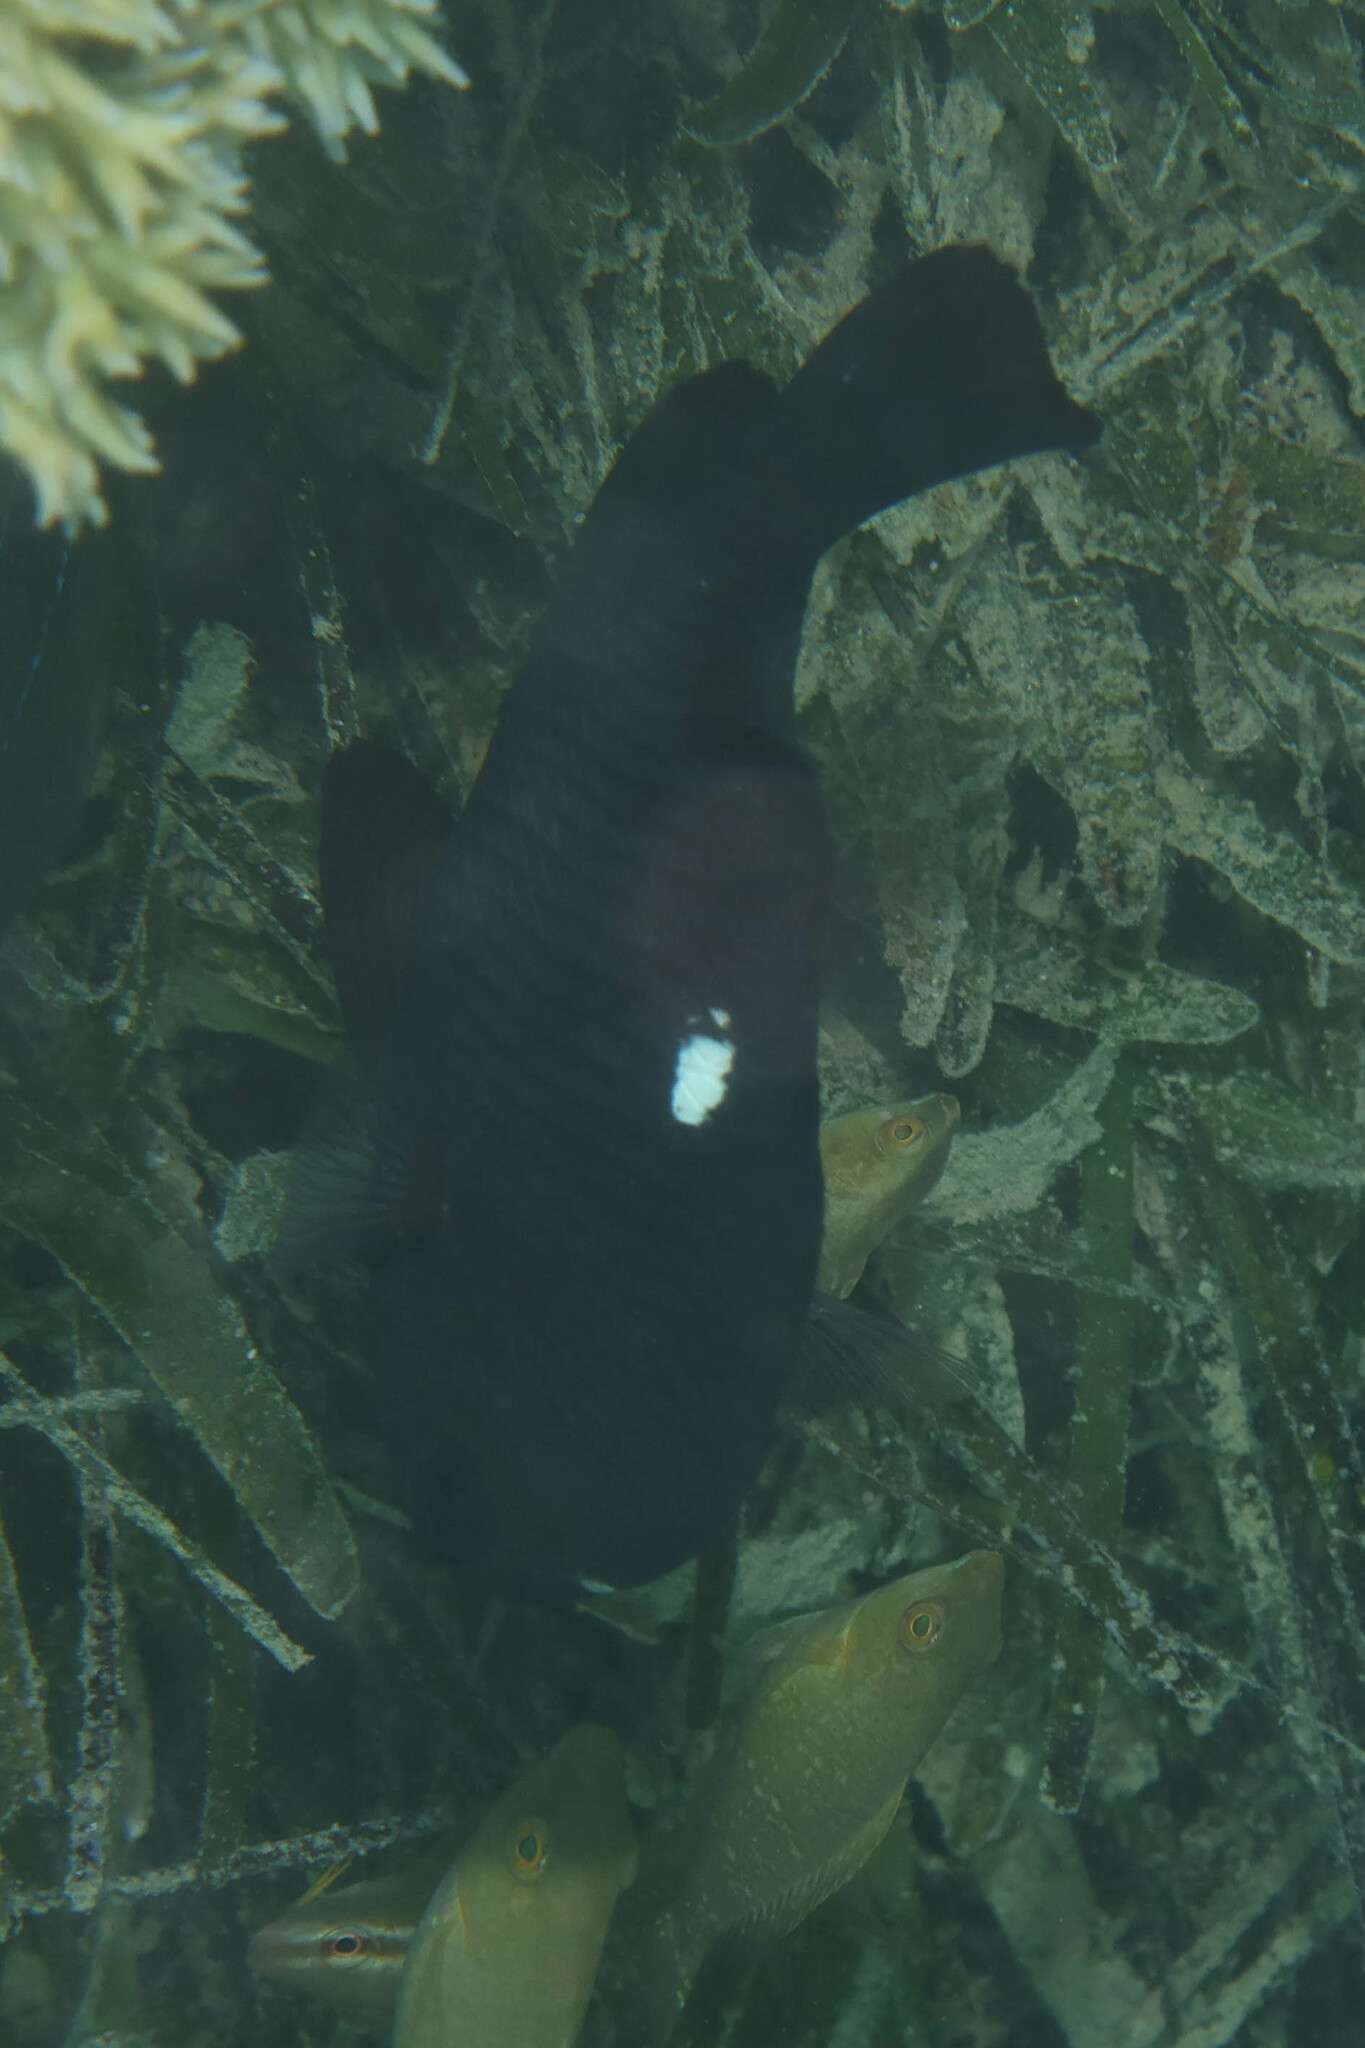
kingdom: Animalia
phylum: Chordata
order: Perciformes
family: Pomacentridae
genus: Dascyllus
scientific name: Dascyllus trimaculatus
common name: Threespot dascyllus
